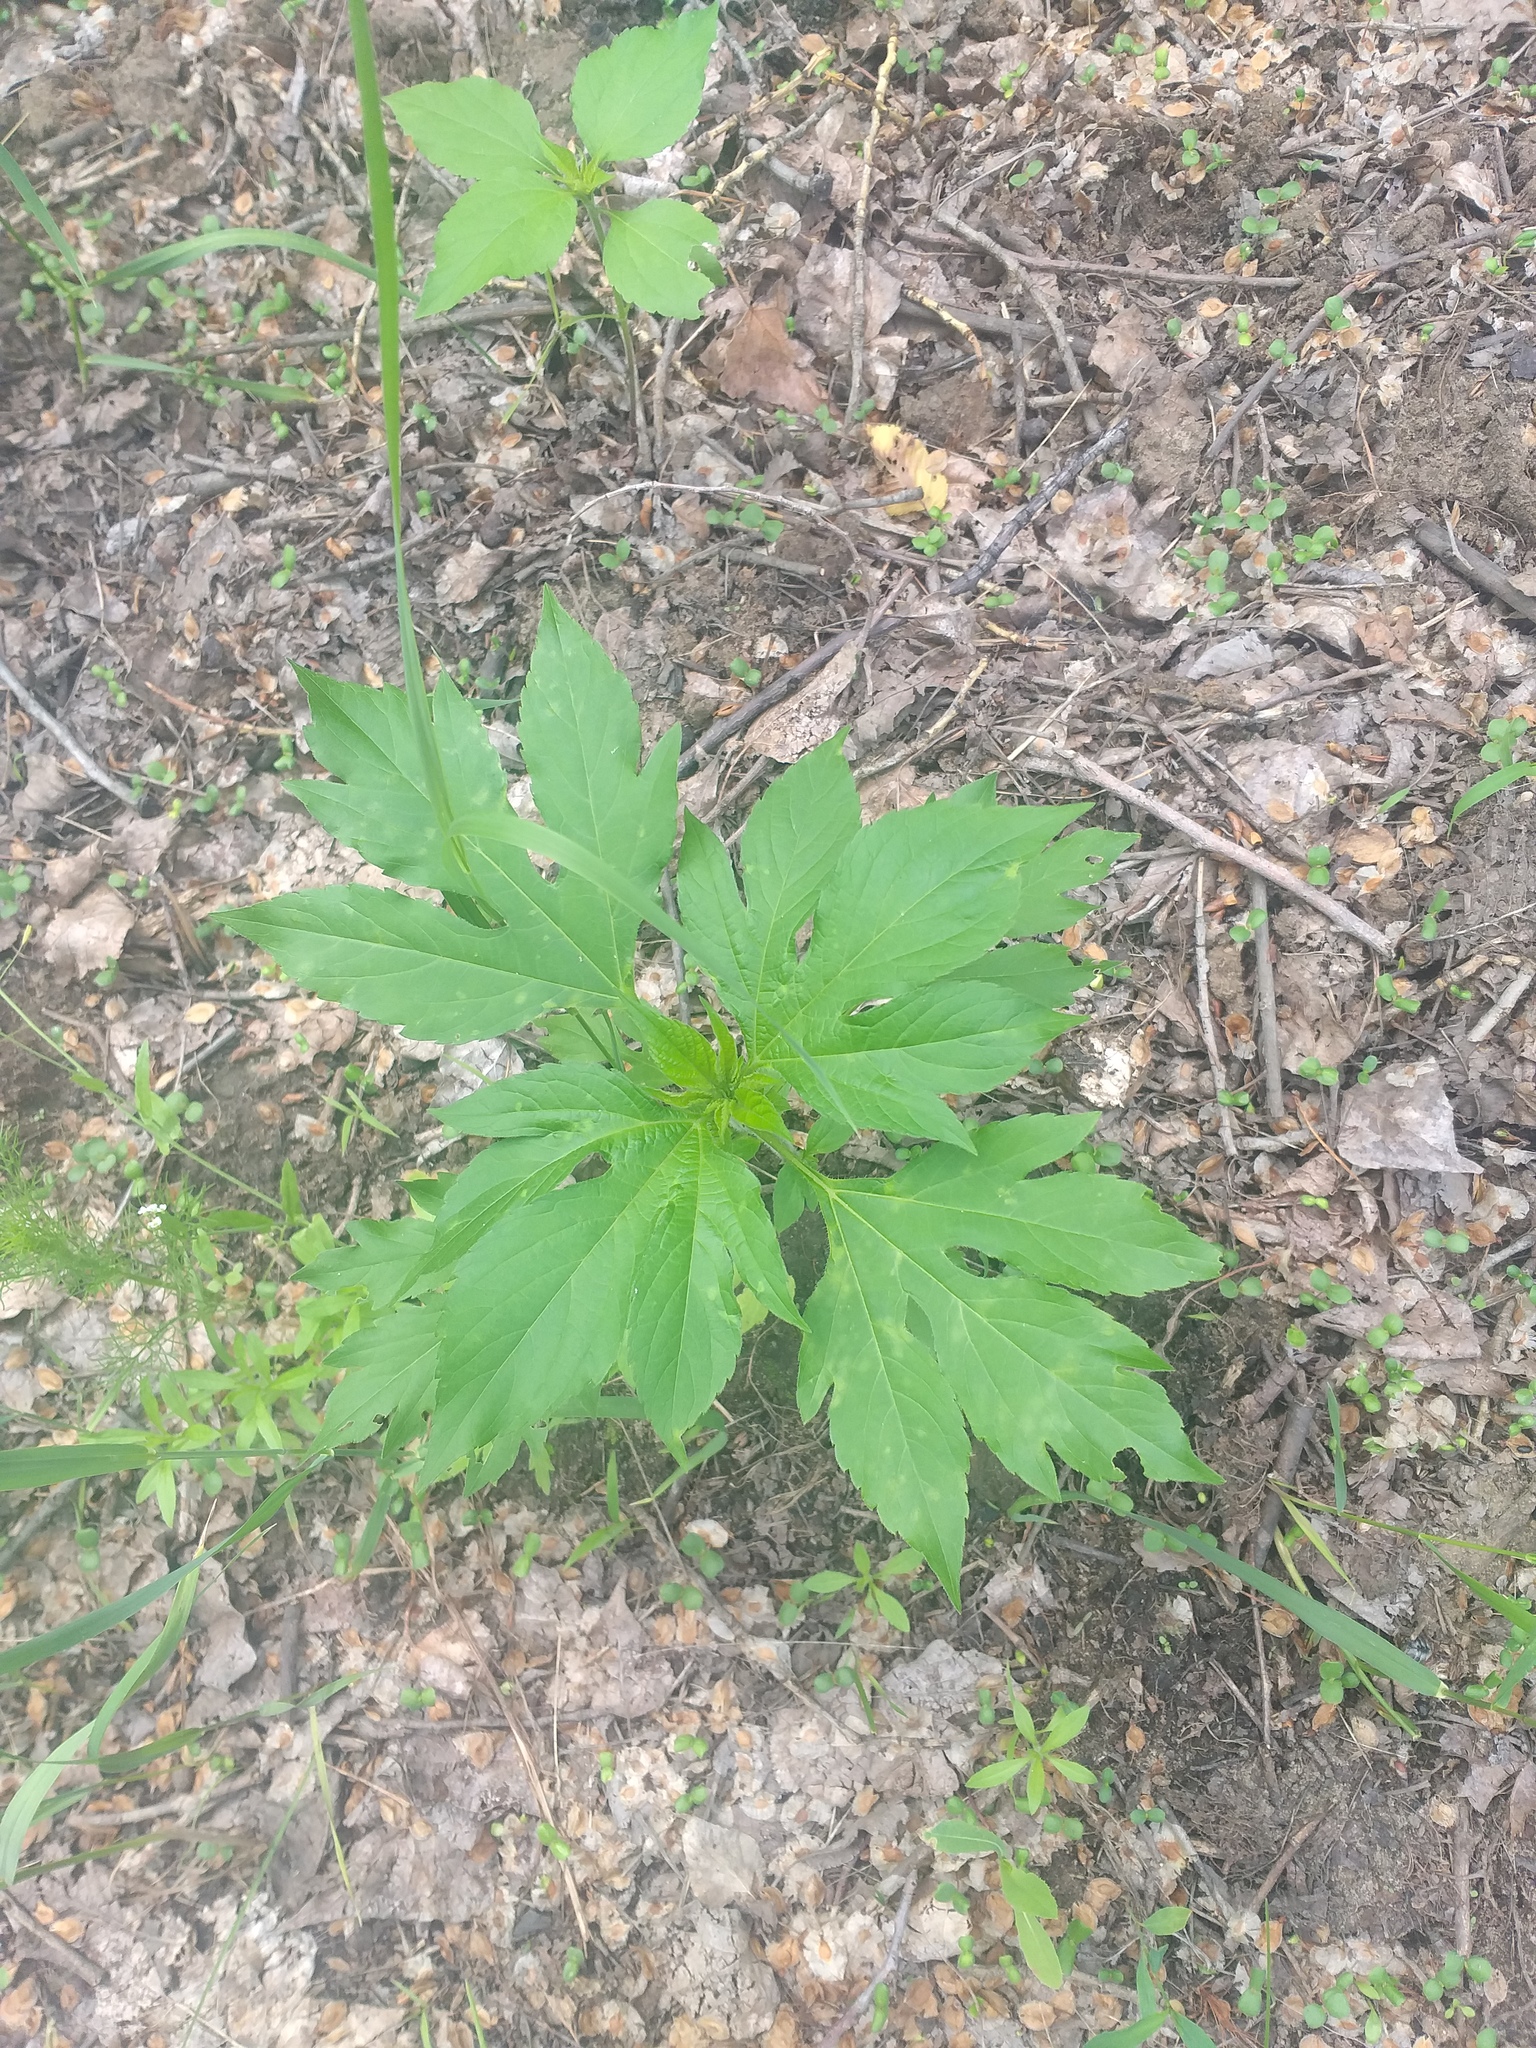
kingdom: Plantae
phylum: Tracheophyta
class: Magnoliopsida
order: Asterales
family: Asteraceae
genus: Ambrosia
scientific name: Ambrosia trifida
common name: Giant ragweed
